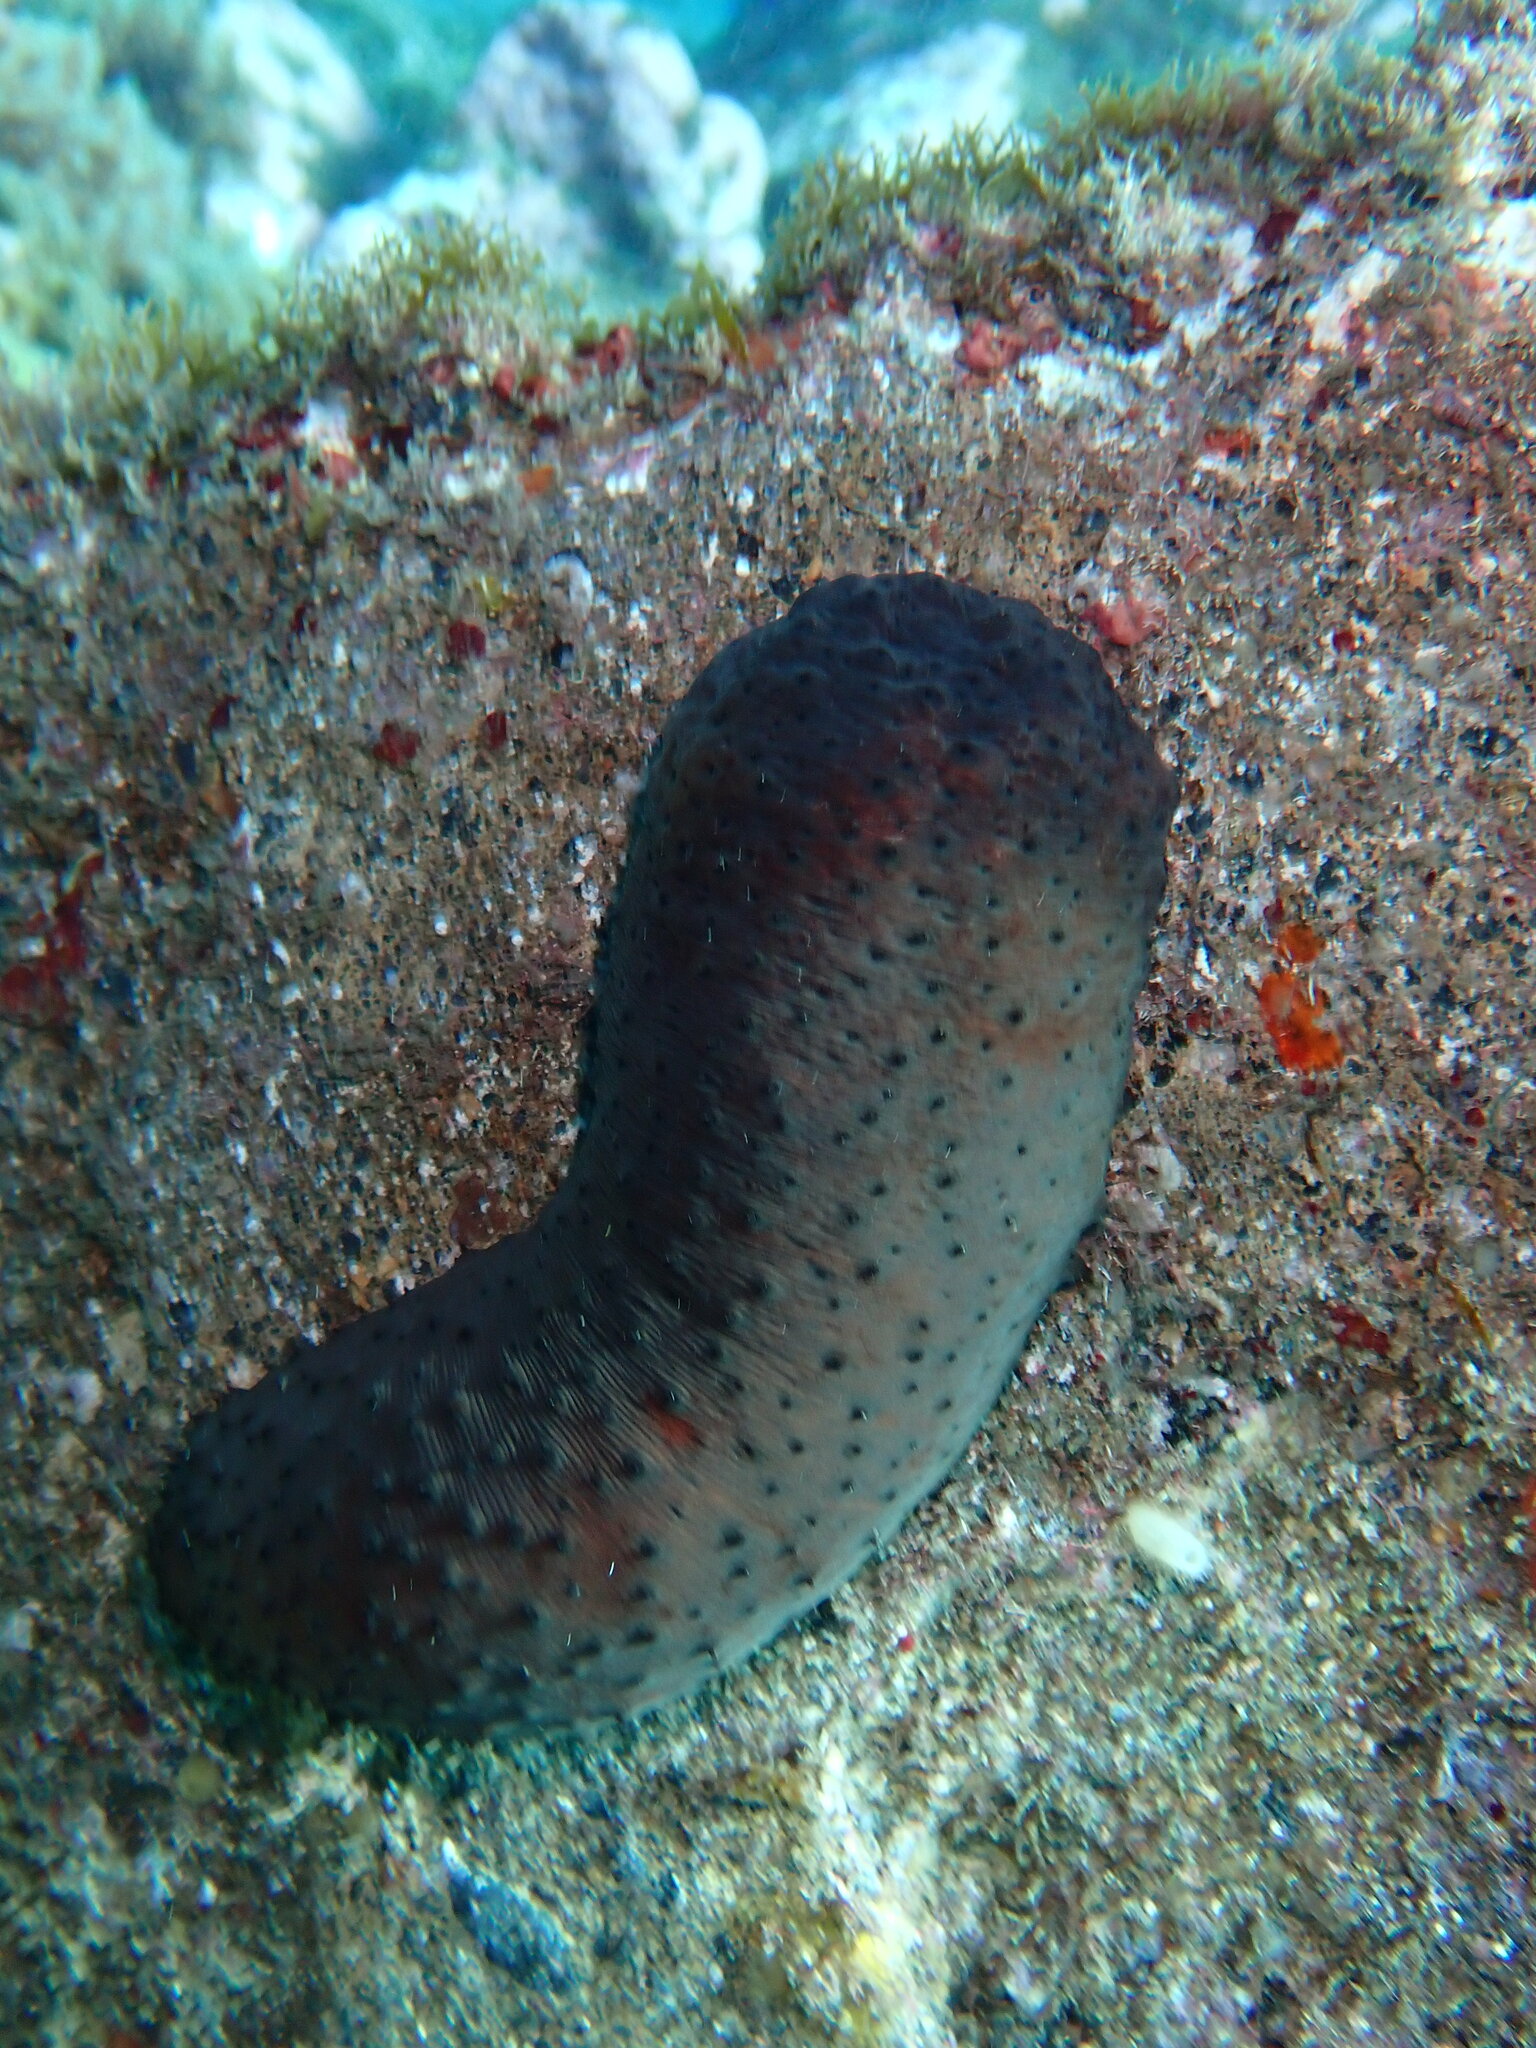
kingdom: Animalia
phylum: Echinodermata
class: Holothuroidea
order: Holothuriida
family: Holothuriidae
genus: Holothuria
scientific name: Holothuria sanctori
